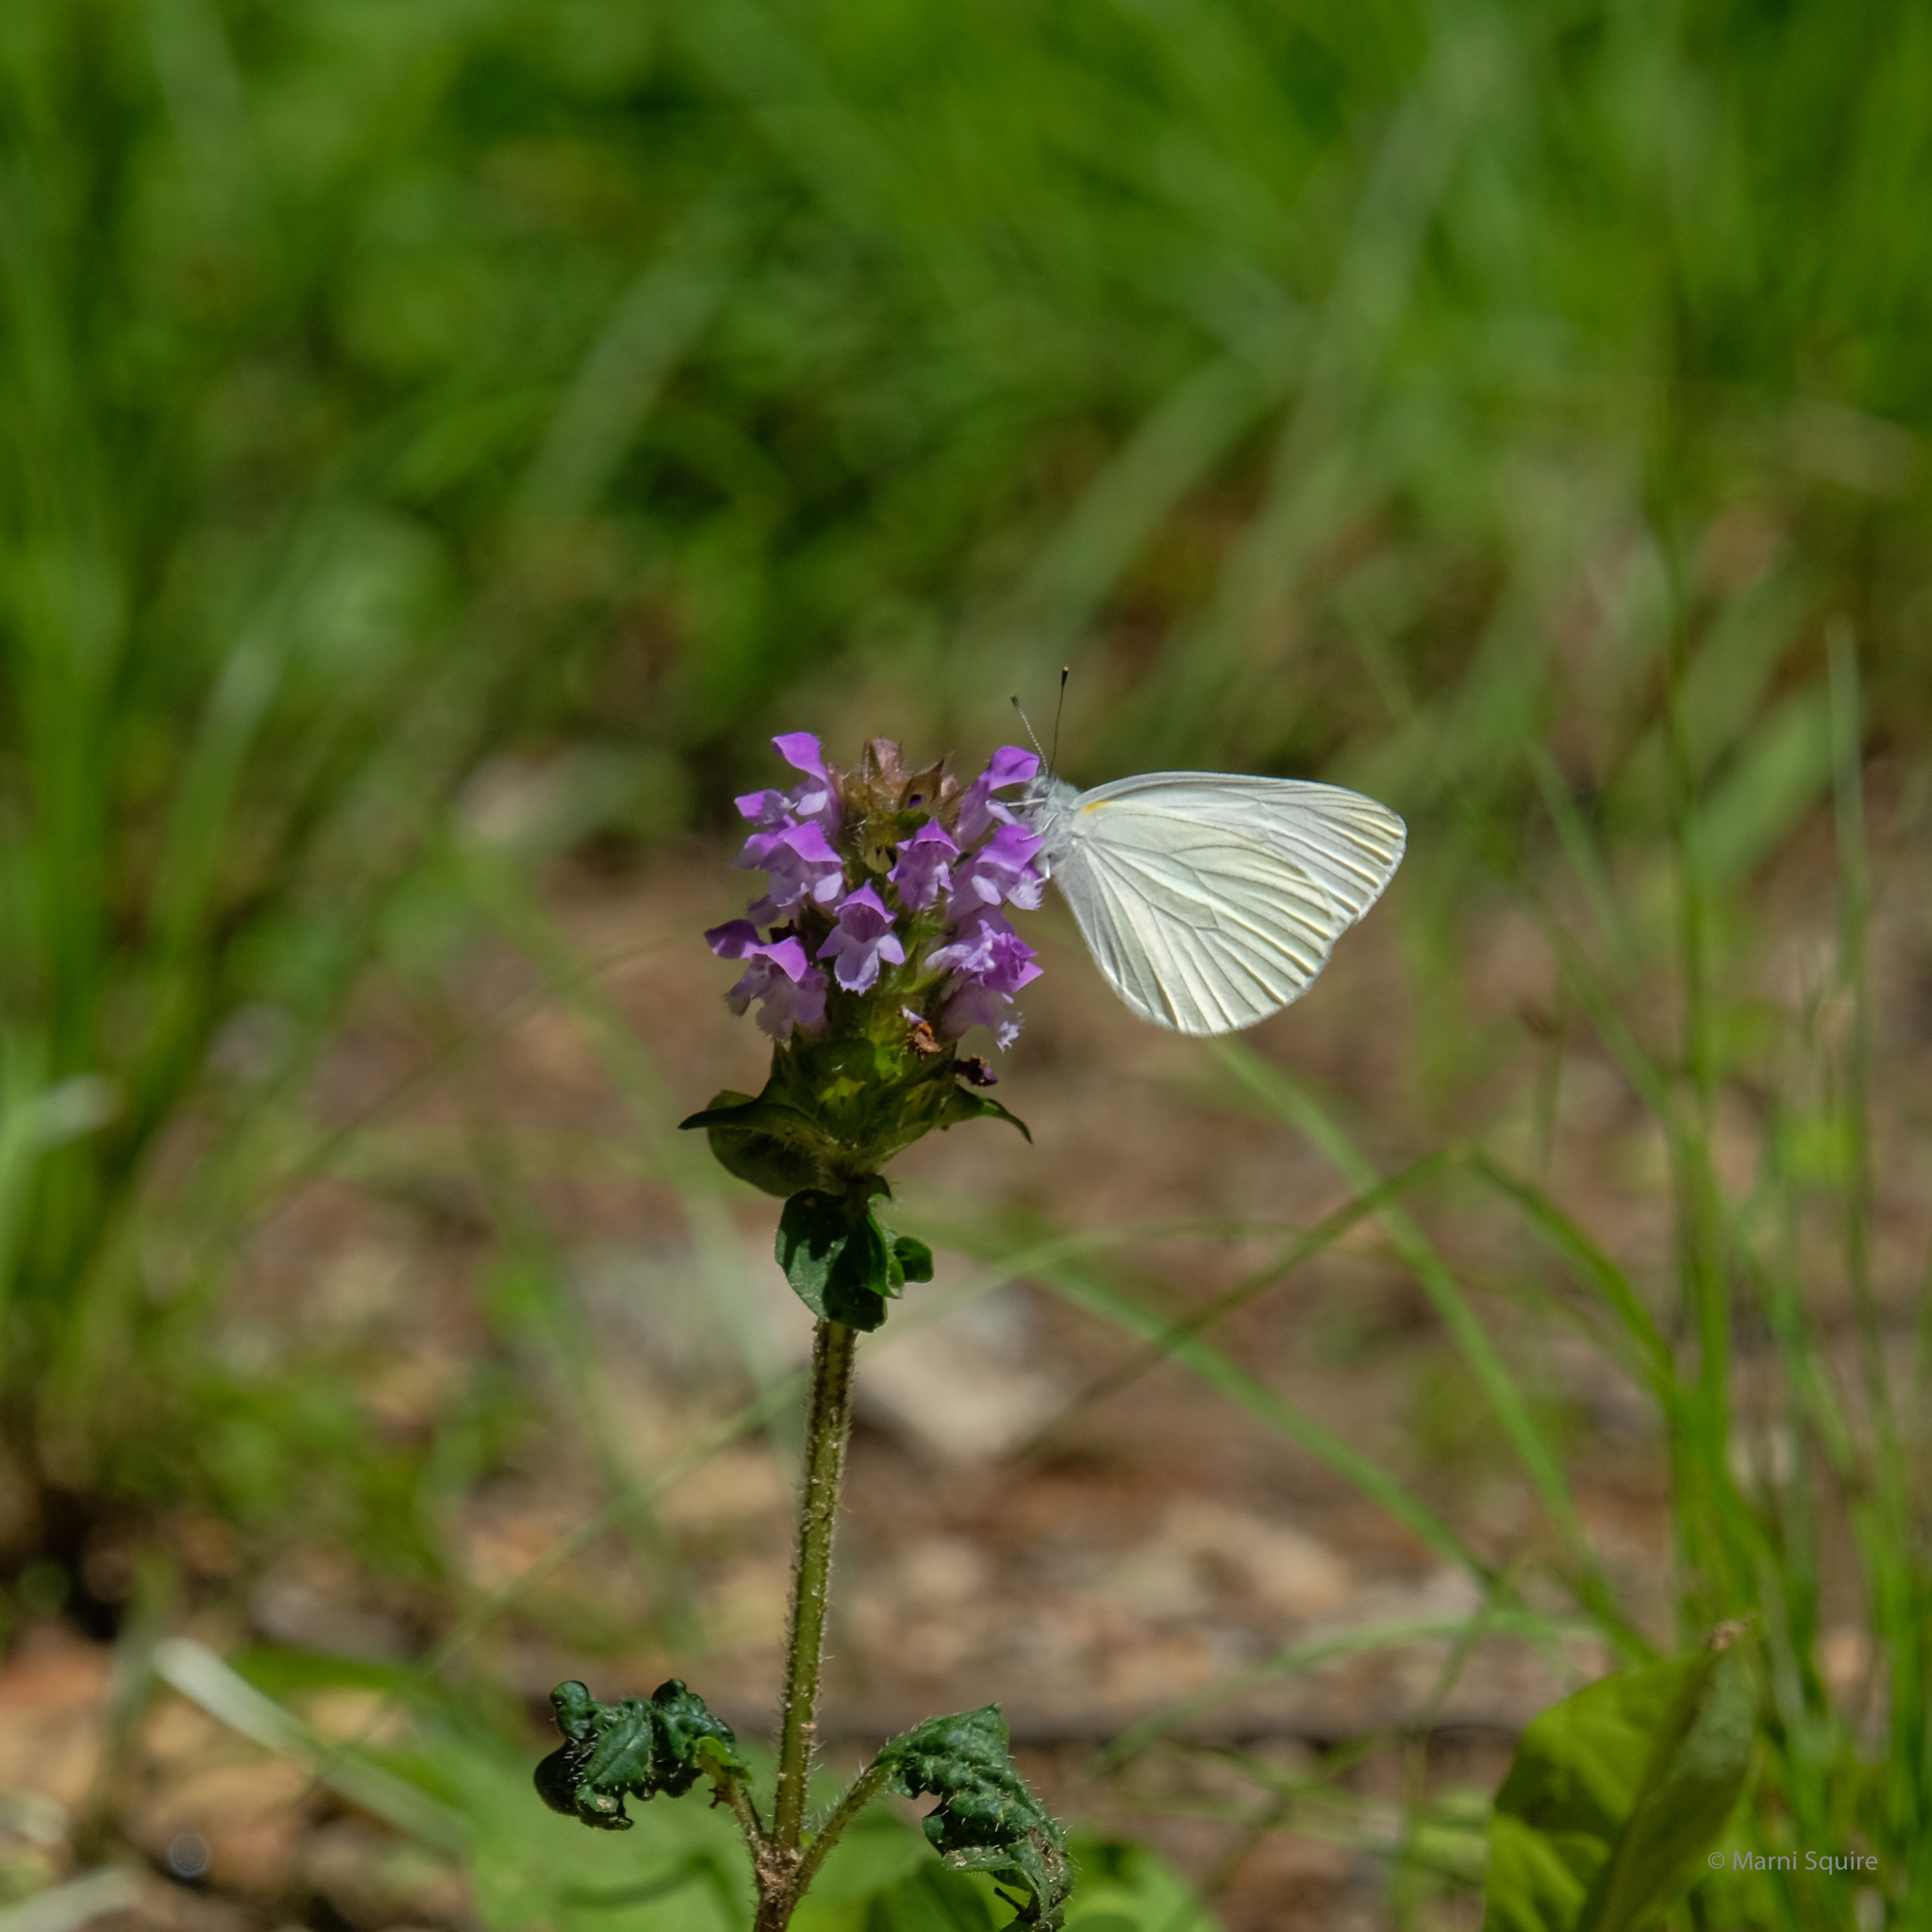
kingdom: Animalia
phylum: Arthropoda
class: Insecta
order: Lepidoptera
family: Pieridae
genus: Pieris
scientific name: Pieris oleracea
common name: Mustard white
